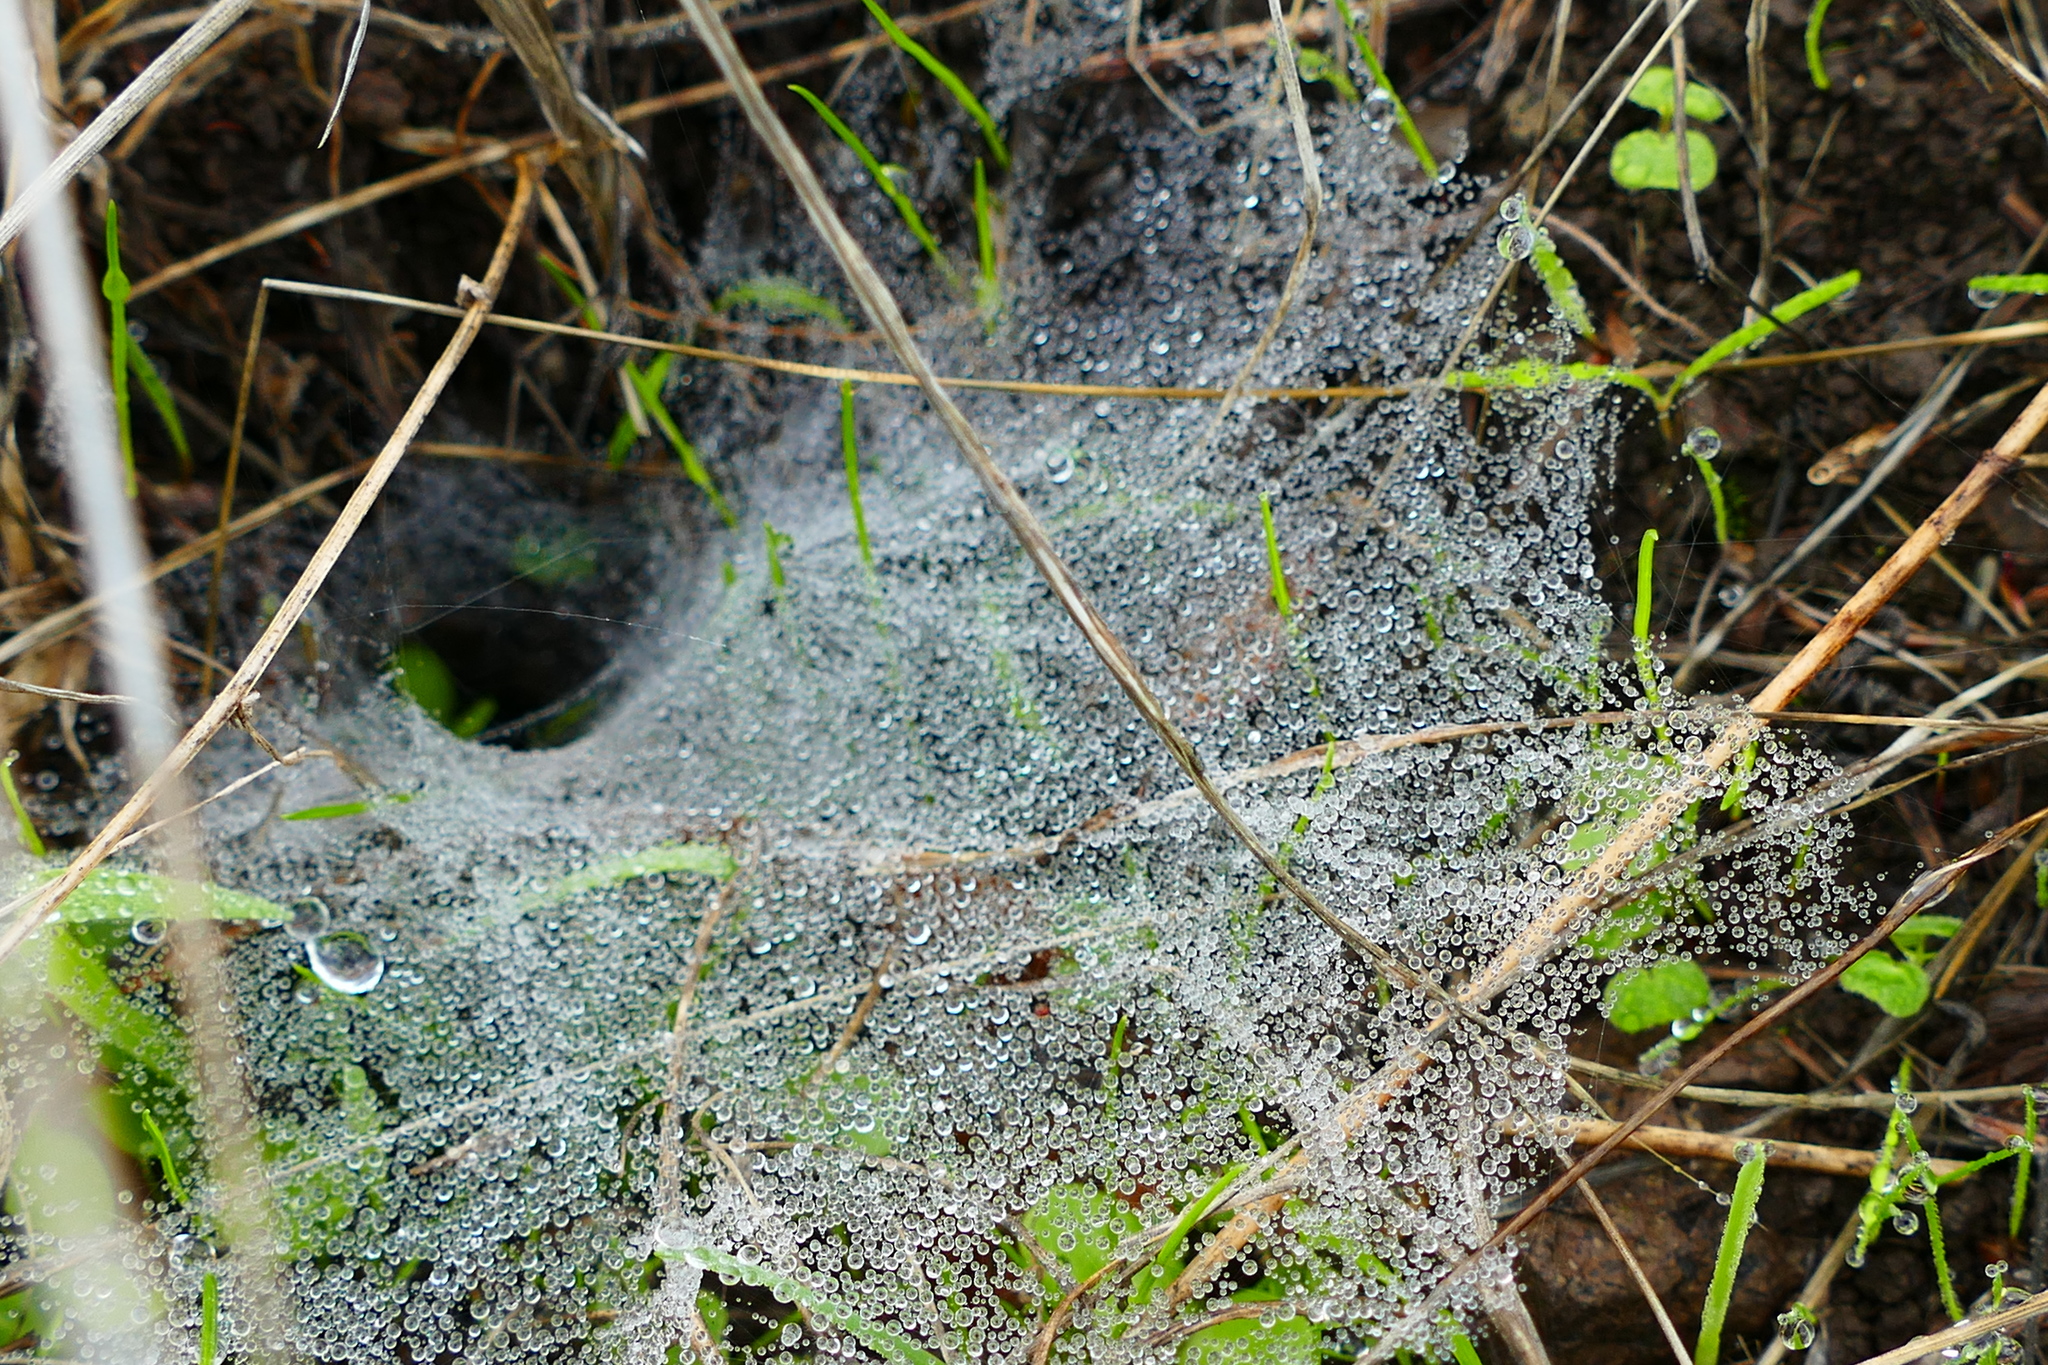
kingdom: Animalia
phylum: Arthropoda
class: Arachnida
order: Araneae
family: Agelenidae
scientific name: Agelenidae
